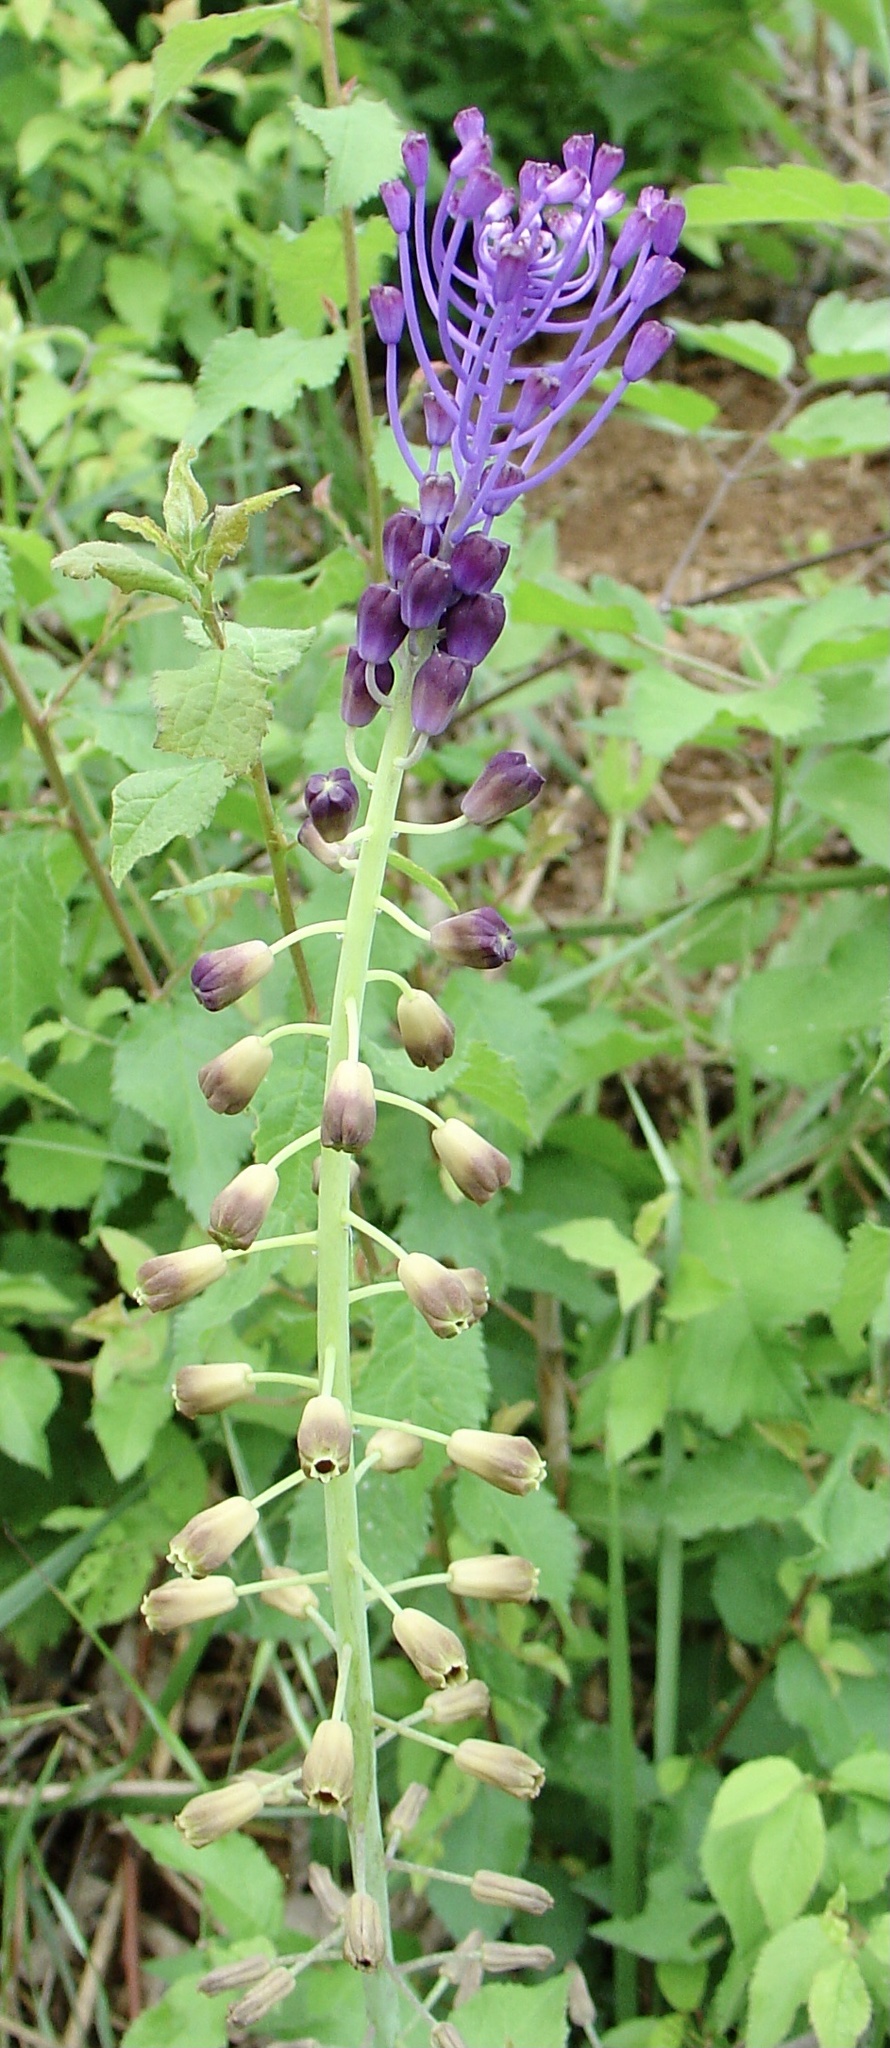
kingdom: Plantae
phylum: Tracheophyta
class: Liliopsida
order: Asparagales
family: Asparagaceae
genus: Muscari
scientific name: Muscari comosum
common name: Tassel hyacinth
